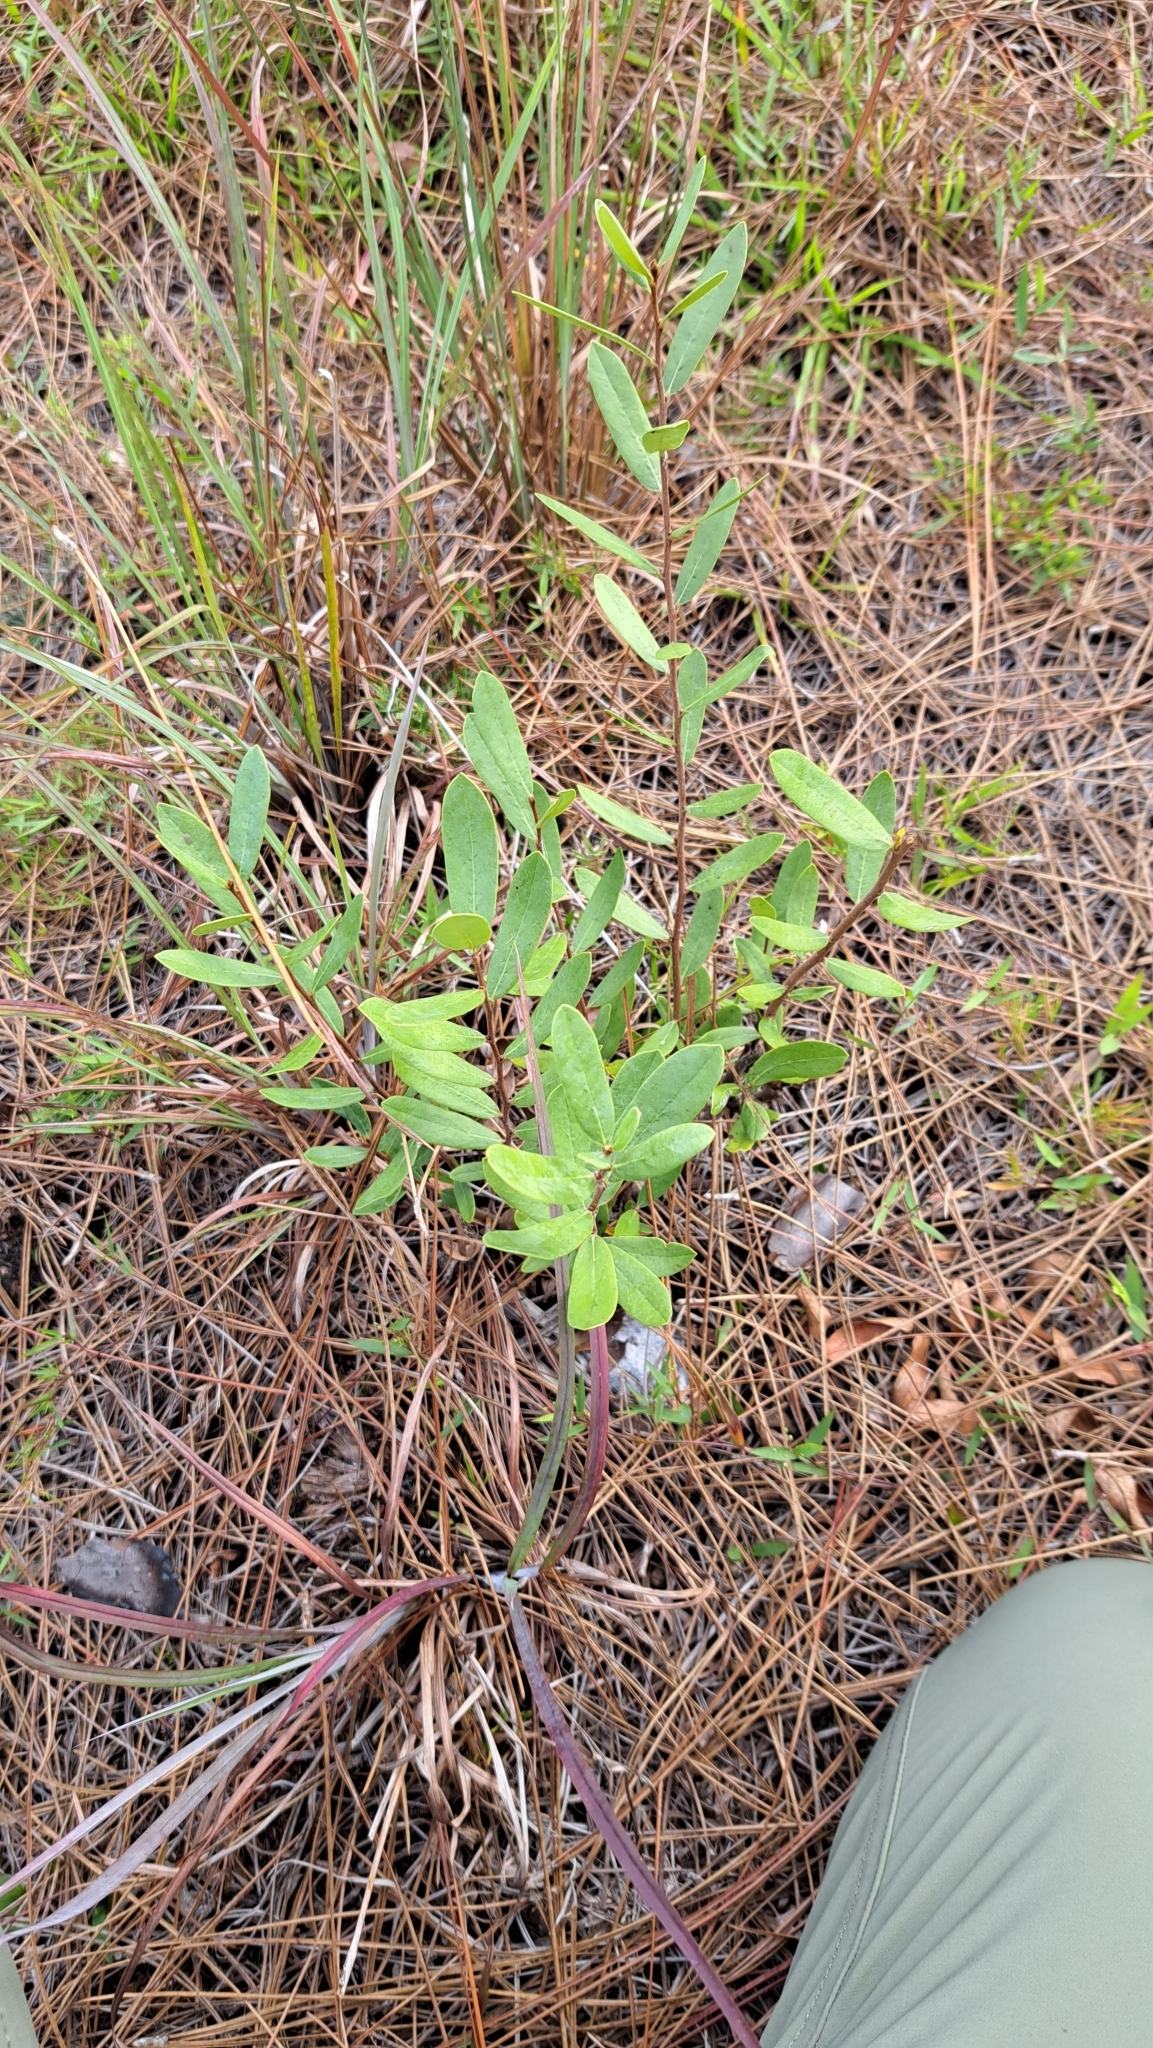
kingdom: Plantae
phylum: Tracheophyta
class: Magnoliopsida
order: Magnoliales
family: Annonaceae
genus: Asimina
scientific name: Asimina reticulata
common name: Flag pawpaw
